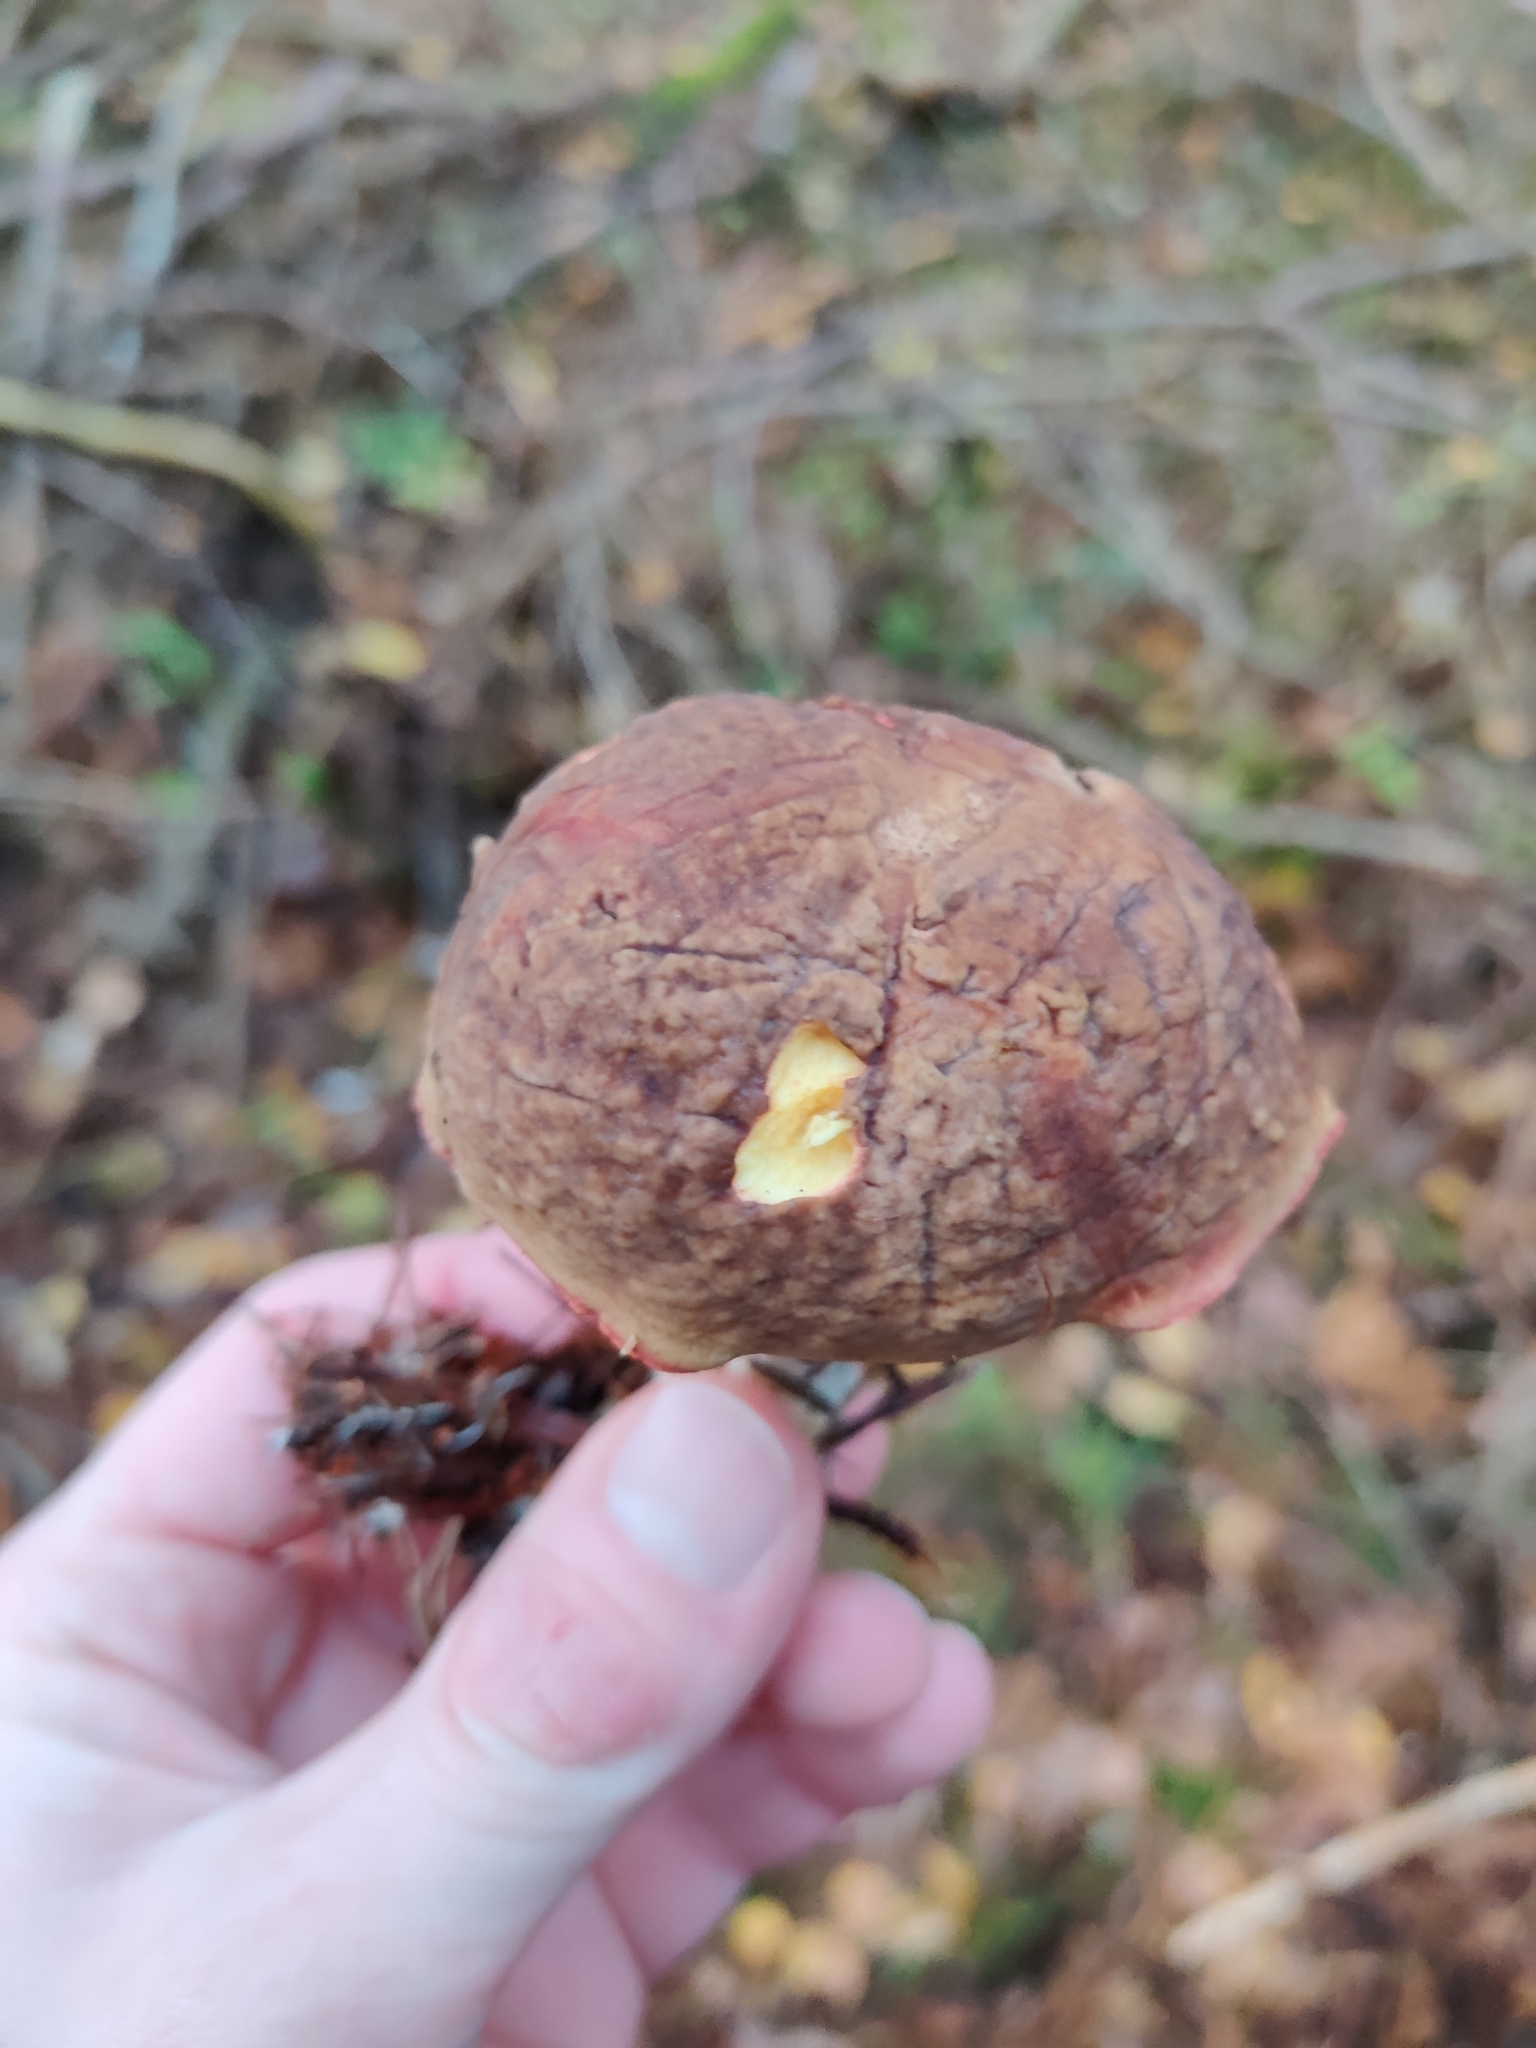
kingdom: Fungi
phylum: Basidiomycota
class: Agaricomycetes
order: Boletales
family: Boletaceae
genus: Xerocomellus
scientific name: Xerocomellus pruinatus
